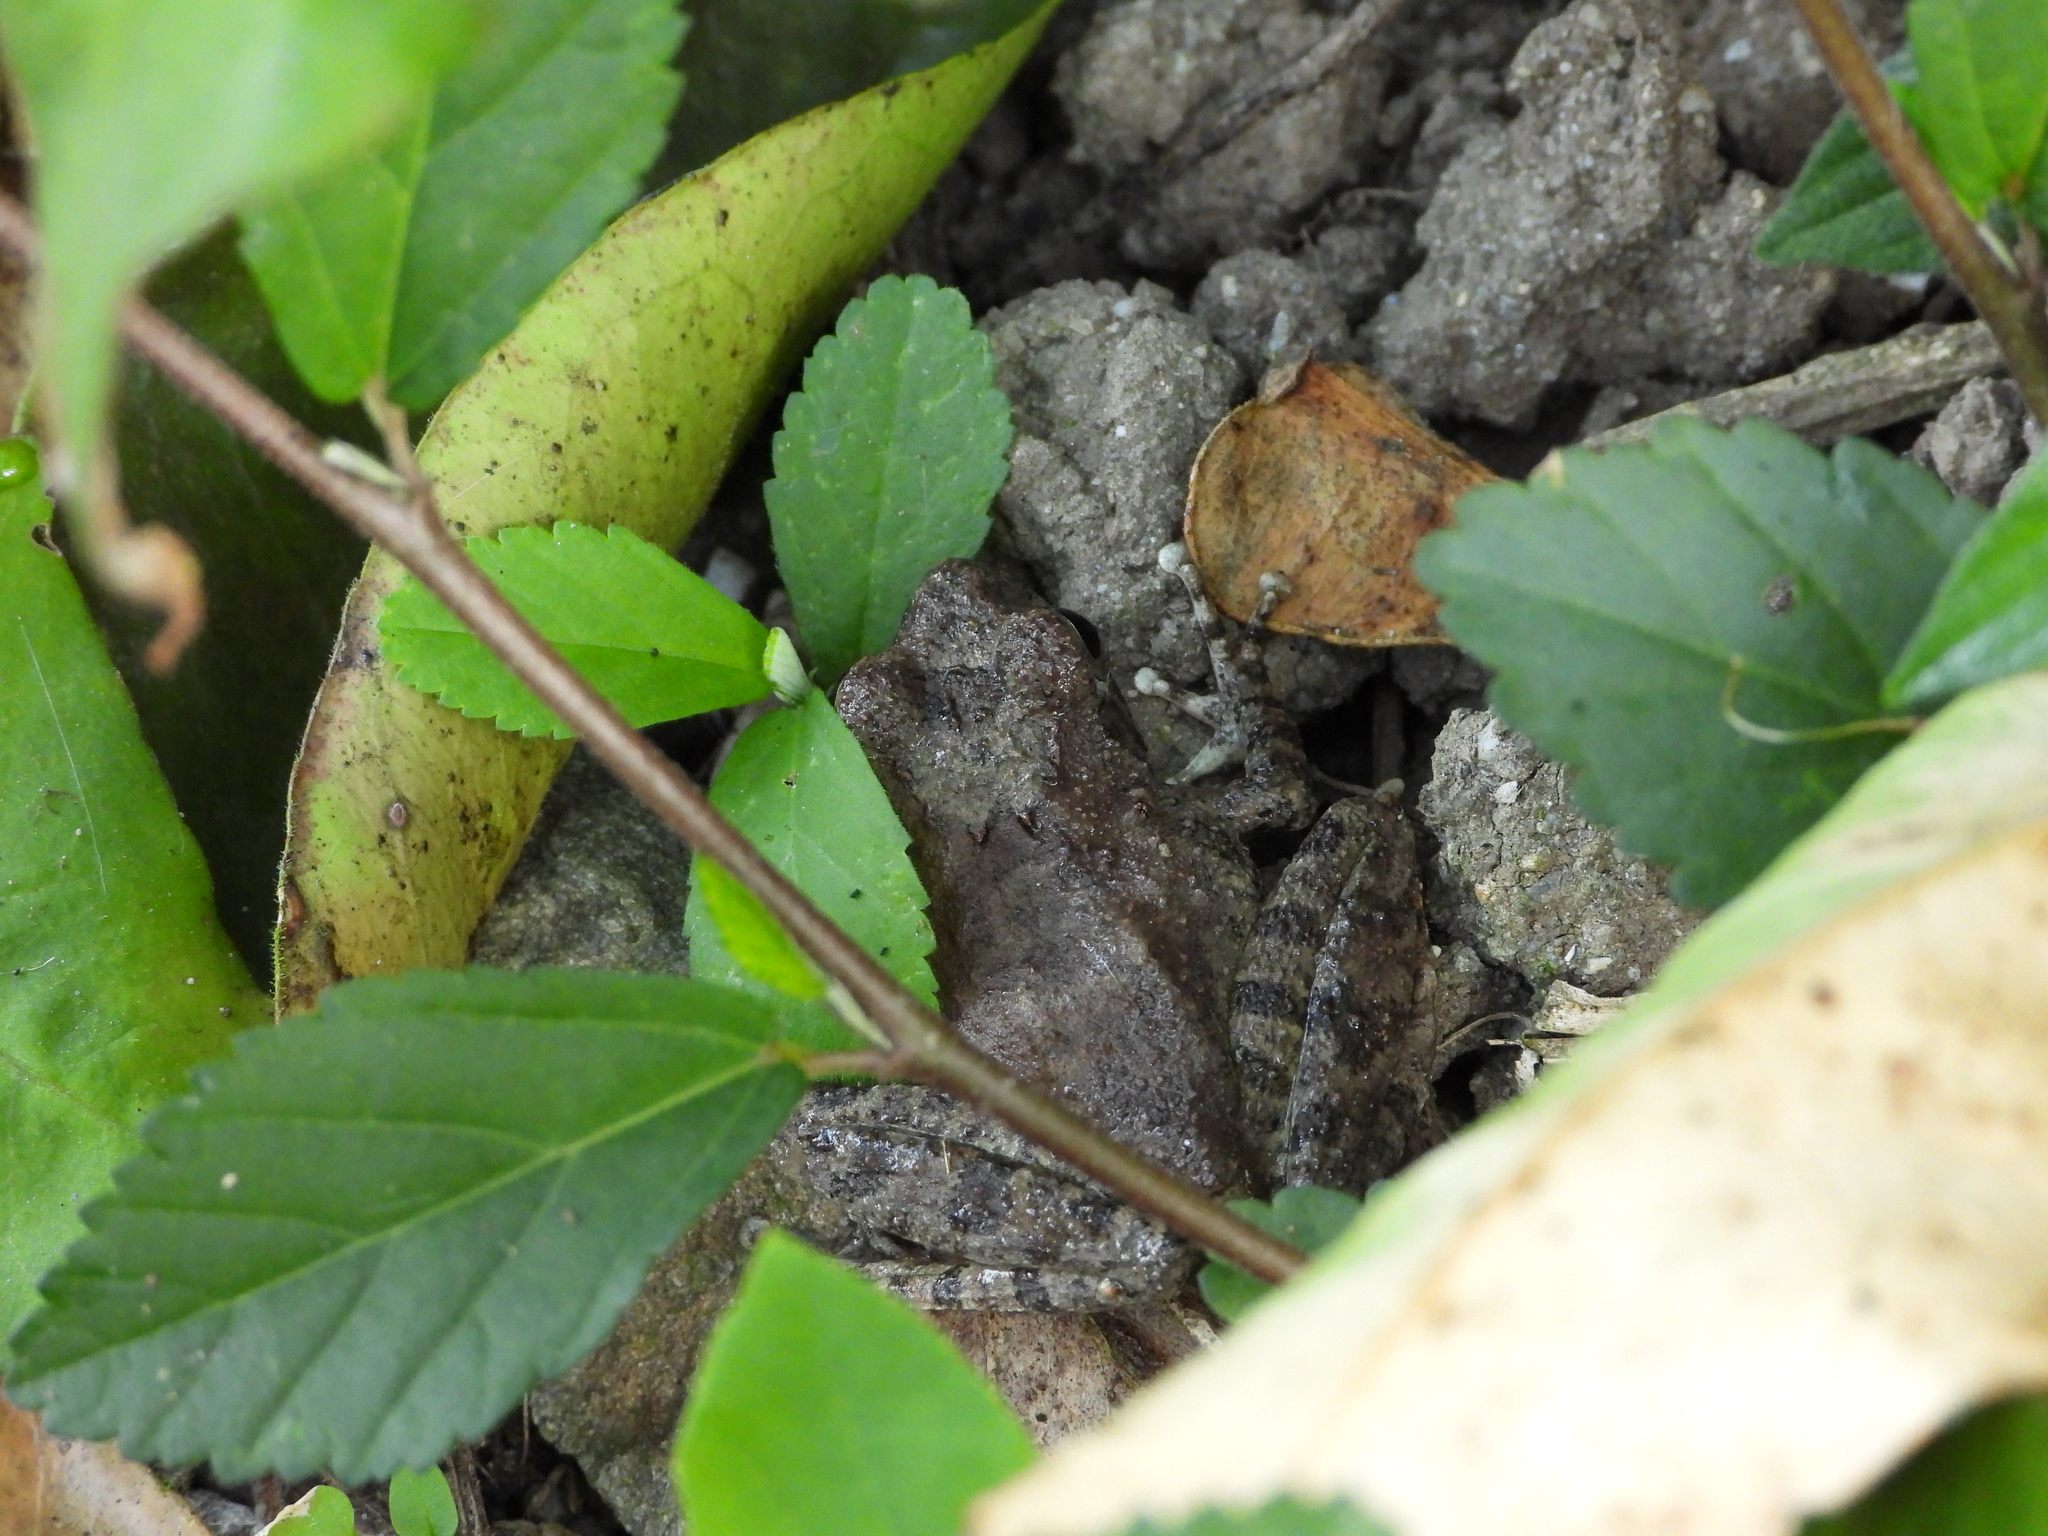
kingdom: Animalia
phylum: Chordata
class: Amphibia
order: Anura
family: Rhacophoridae
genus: Buergeria
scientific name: Buergeria otai
